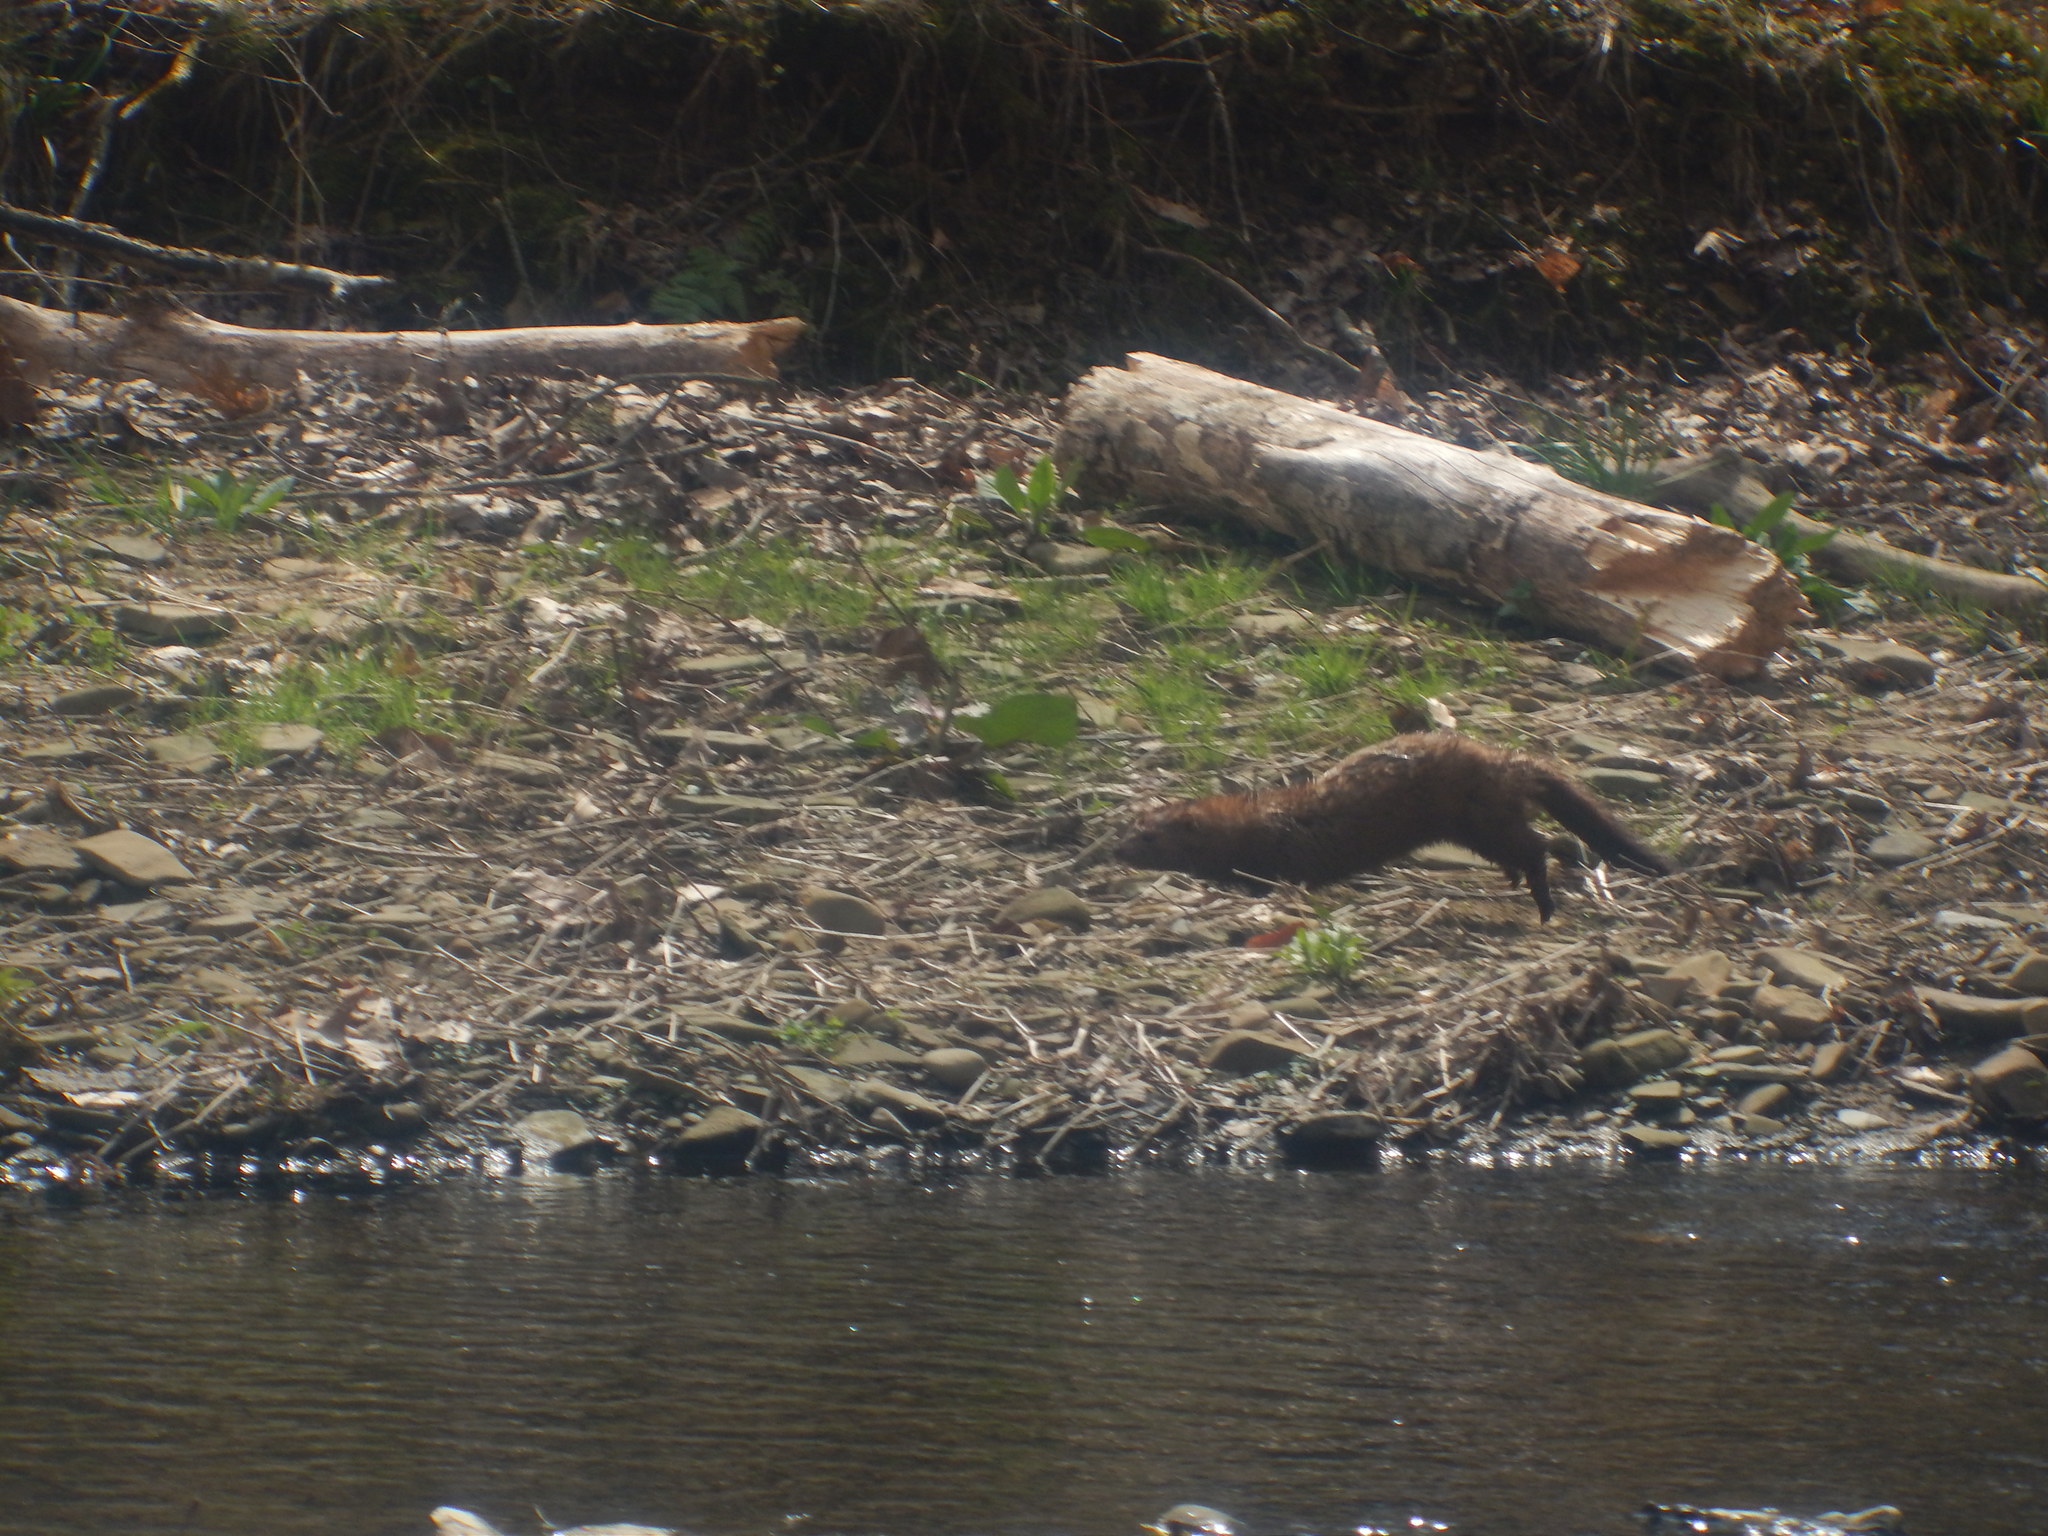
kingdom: Animalia
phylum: Chordata
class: Mammalia
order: Carnivora
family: Mustelidae
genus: Mustela
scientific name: Mustela
